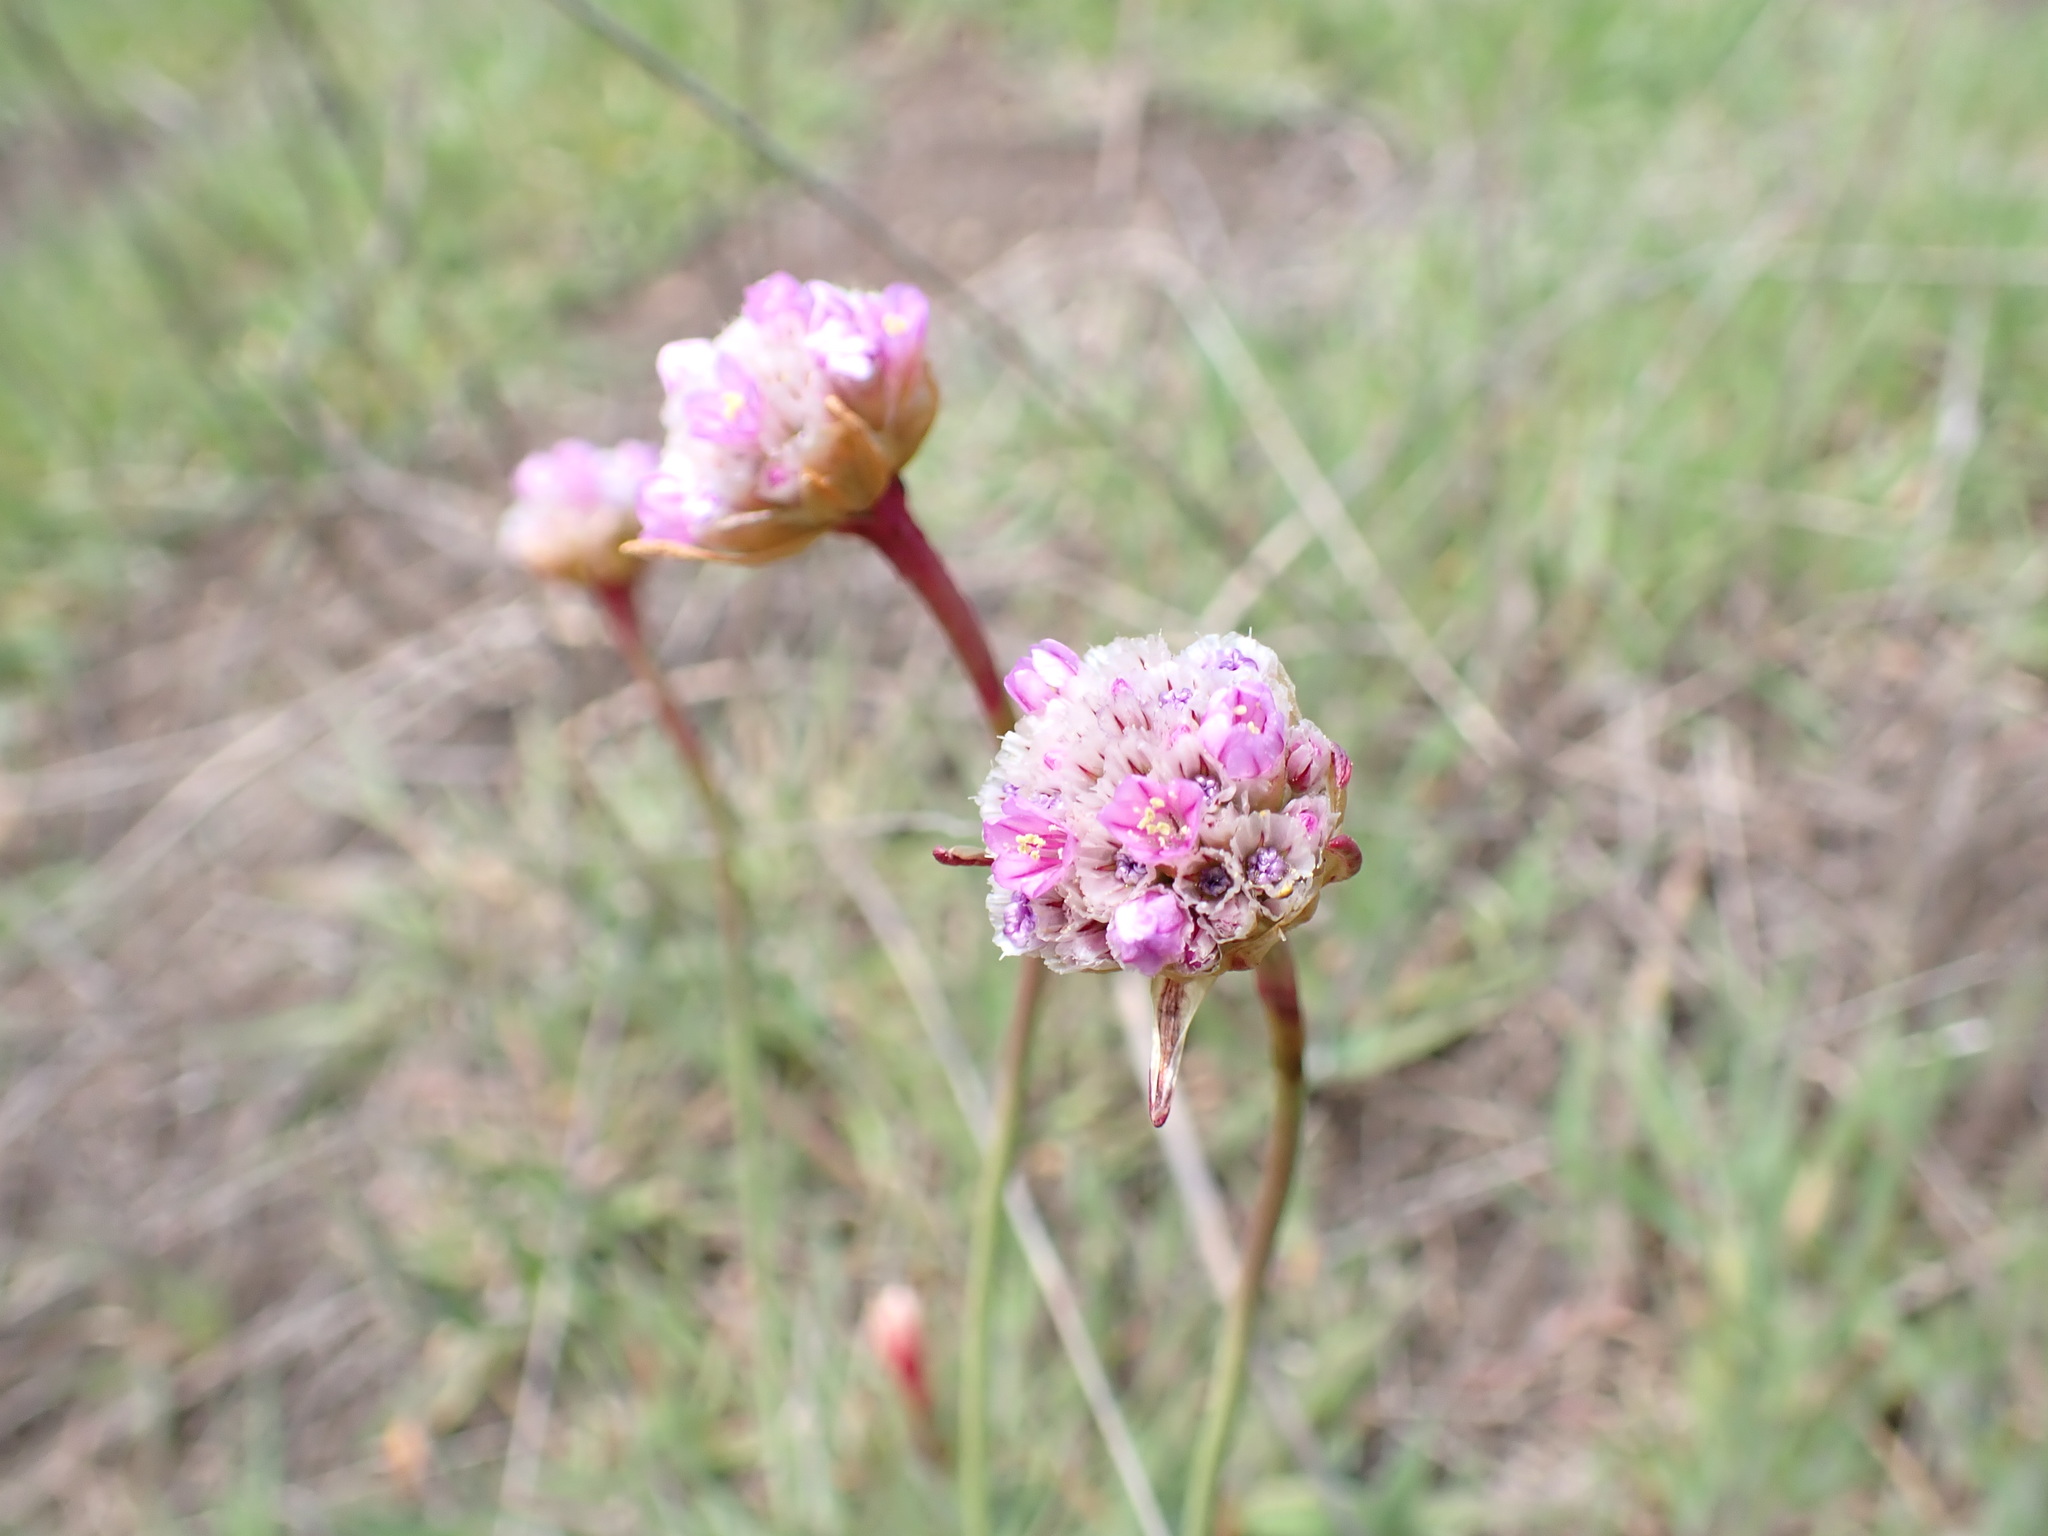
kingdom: Plantae
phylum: Tracheophyta
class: Magnoliopsida
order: Caryophyllales
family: Plumbaginaceae
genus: Armeria
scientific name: Armeria maritima
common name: Thrift
